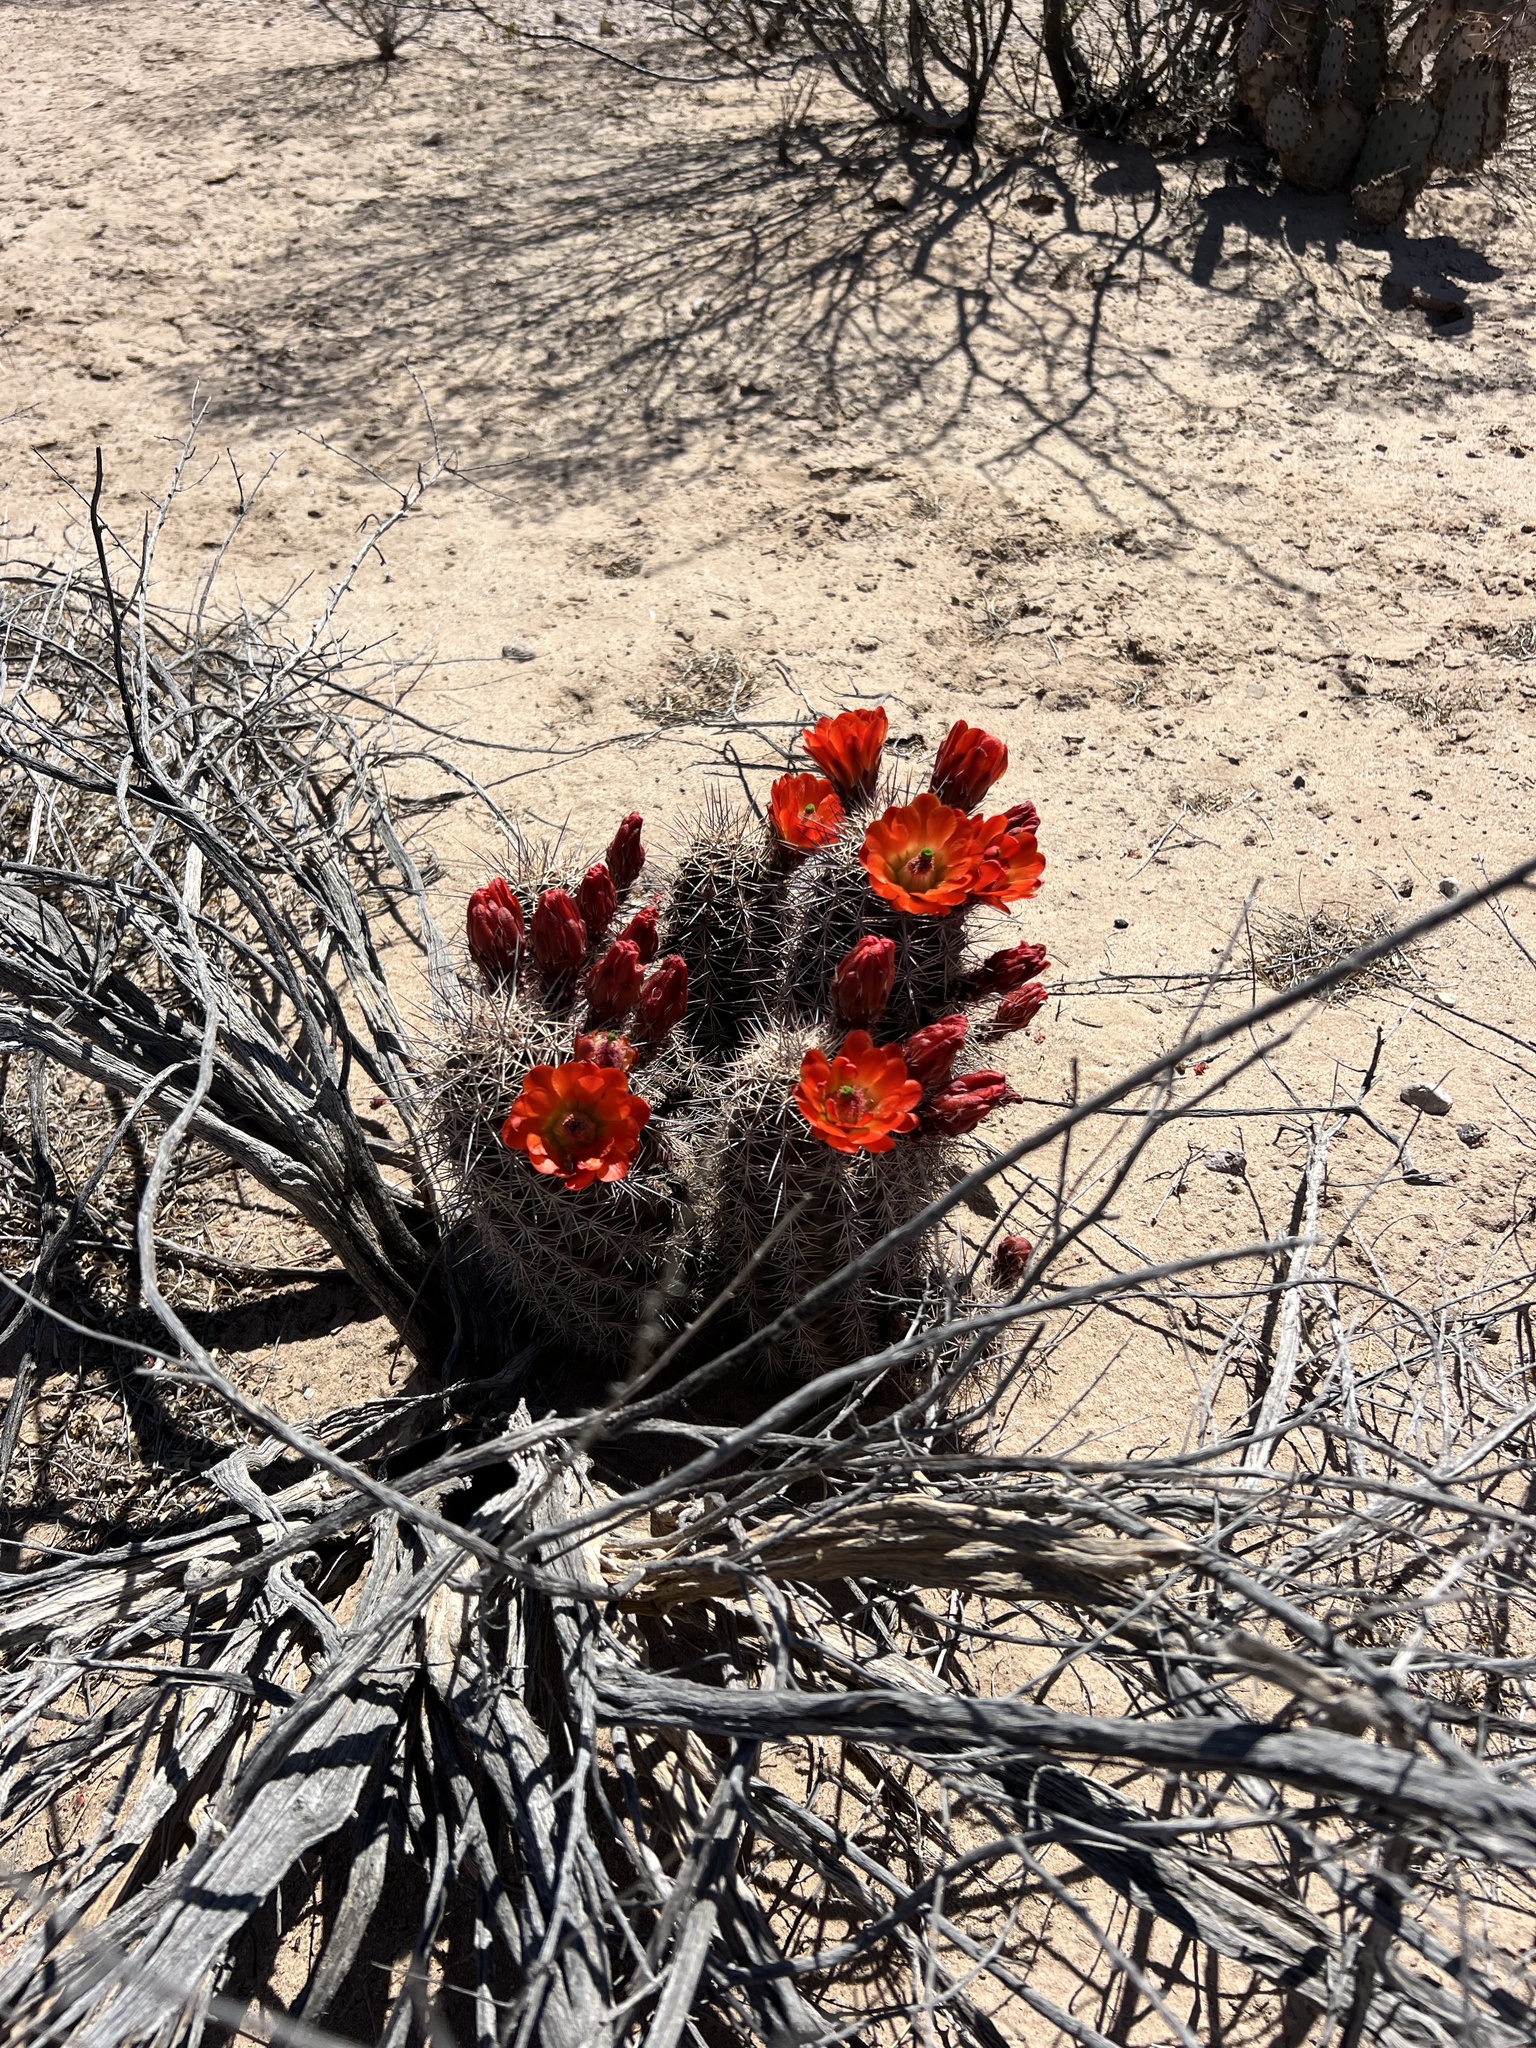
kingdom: Plantae
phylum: Tracheophyta
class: Magnoliopsida
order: Caryophyllales
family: Cactaceae
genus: Echinocereus
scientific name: Echinocereus coccineus
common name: Scarlet hedgehog cactus
